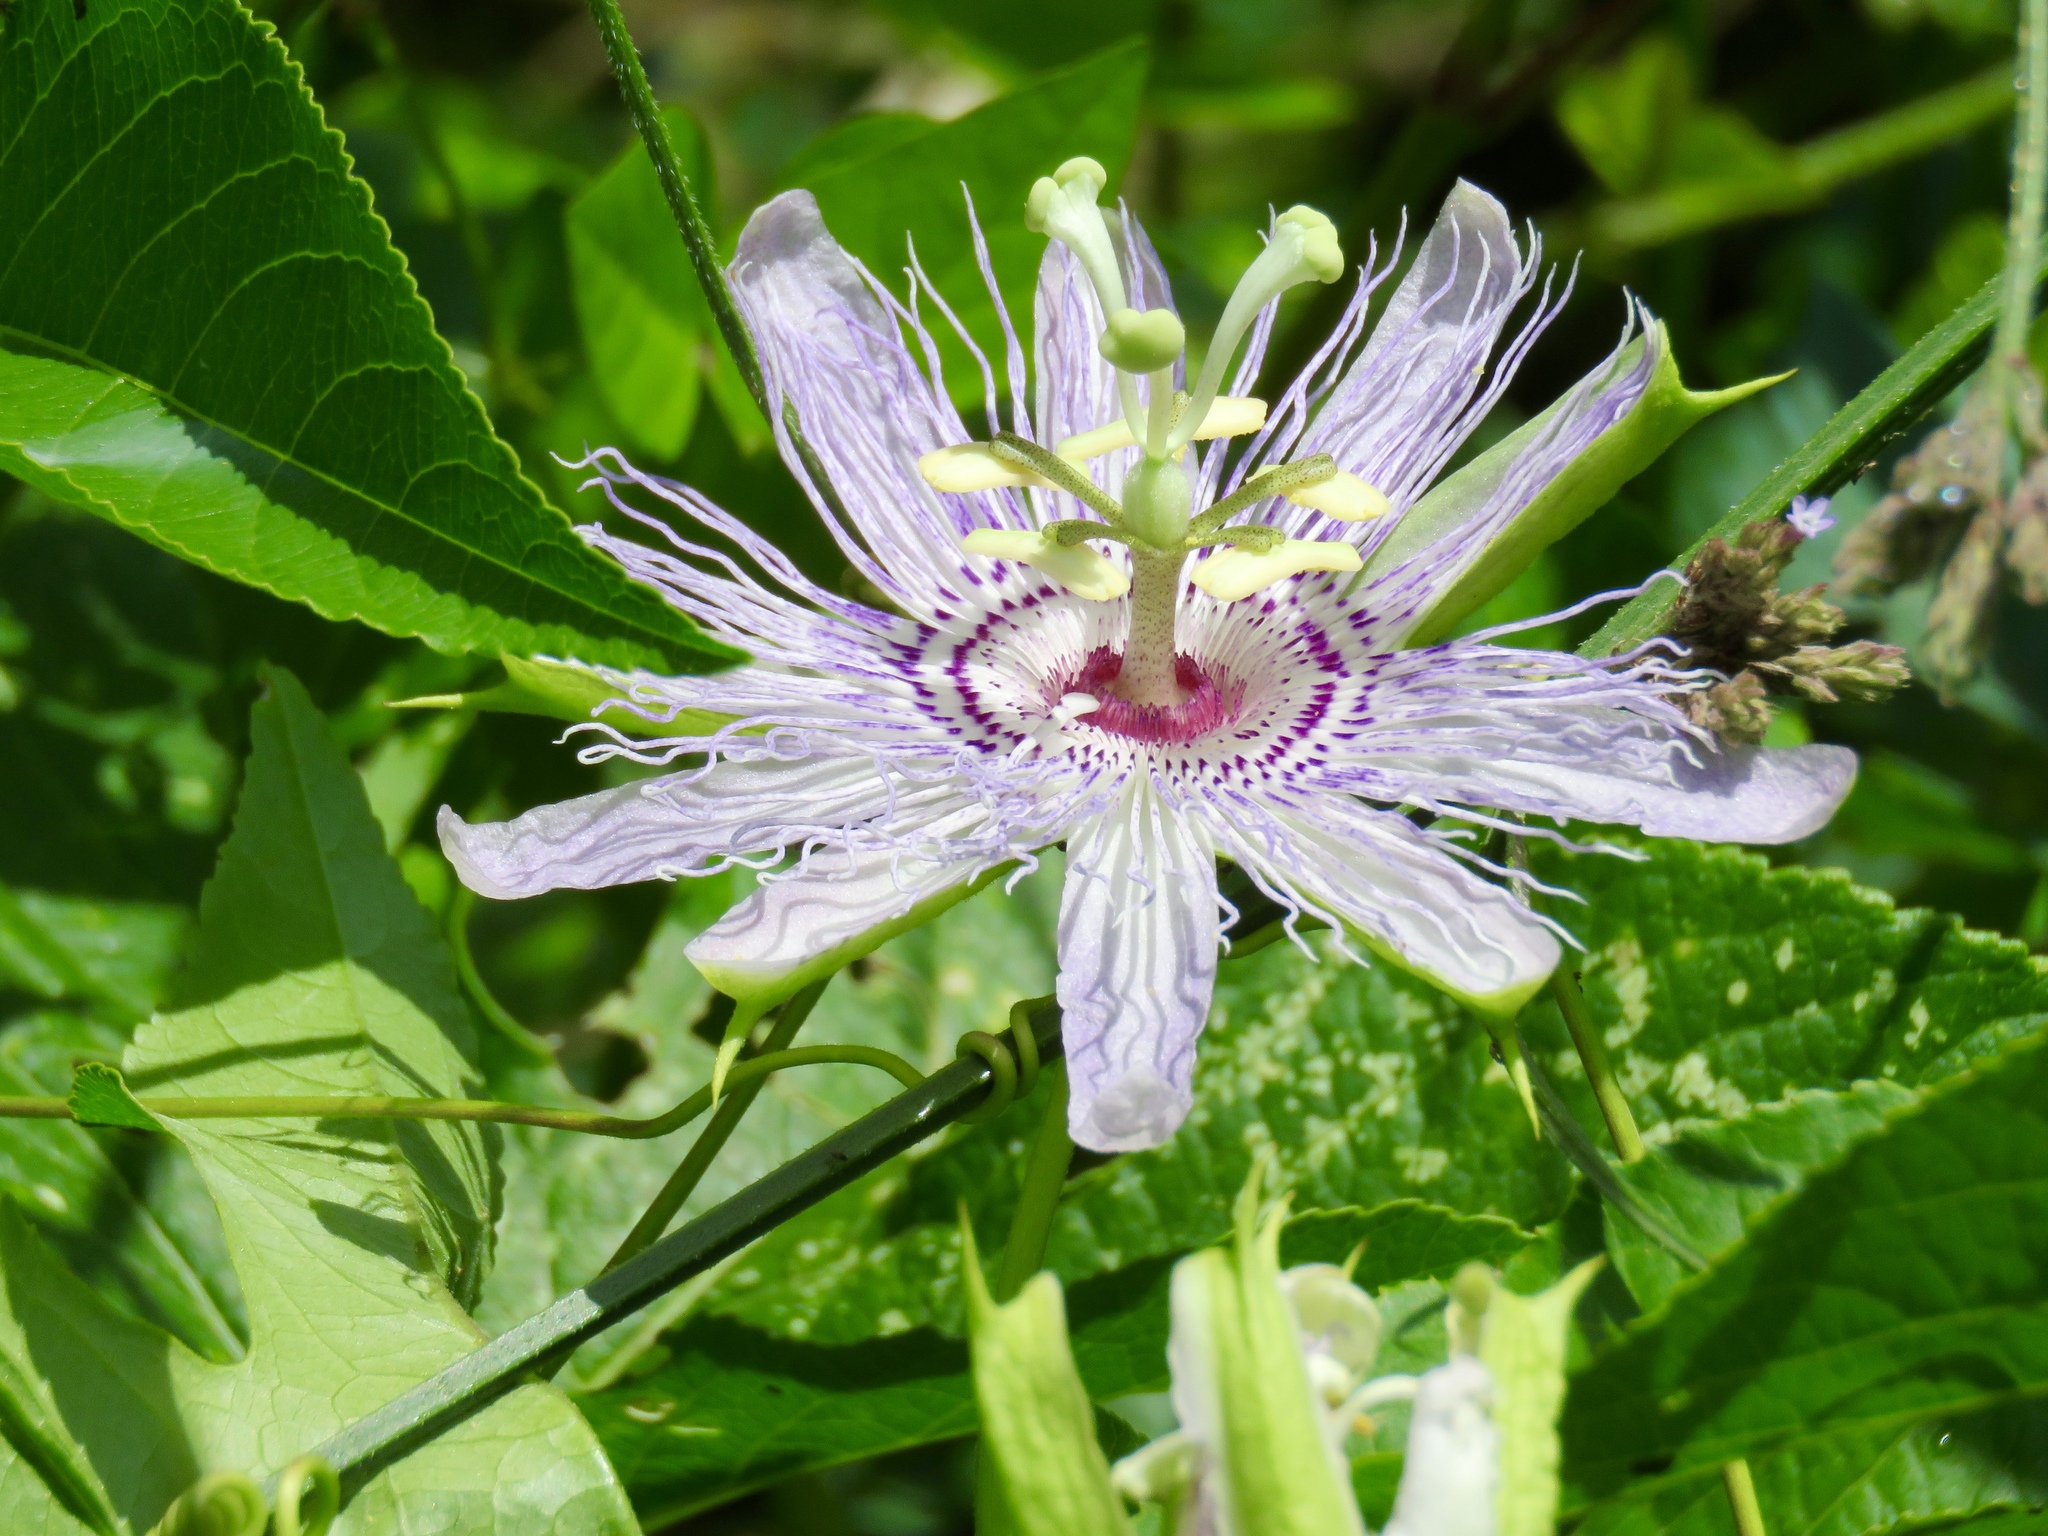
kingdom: Plantae
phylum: Tracheophyta
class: Magnoliopsida
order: Malpighiales
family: Passifloraceae
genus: Passiflora
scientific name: Passiflora incarnata
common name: Apricot-vine
